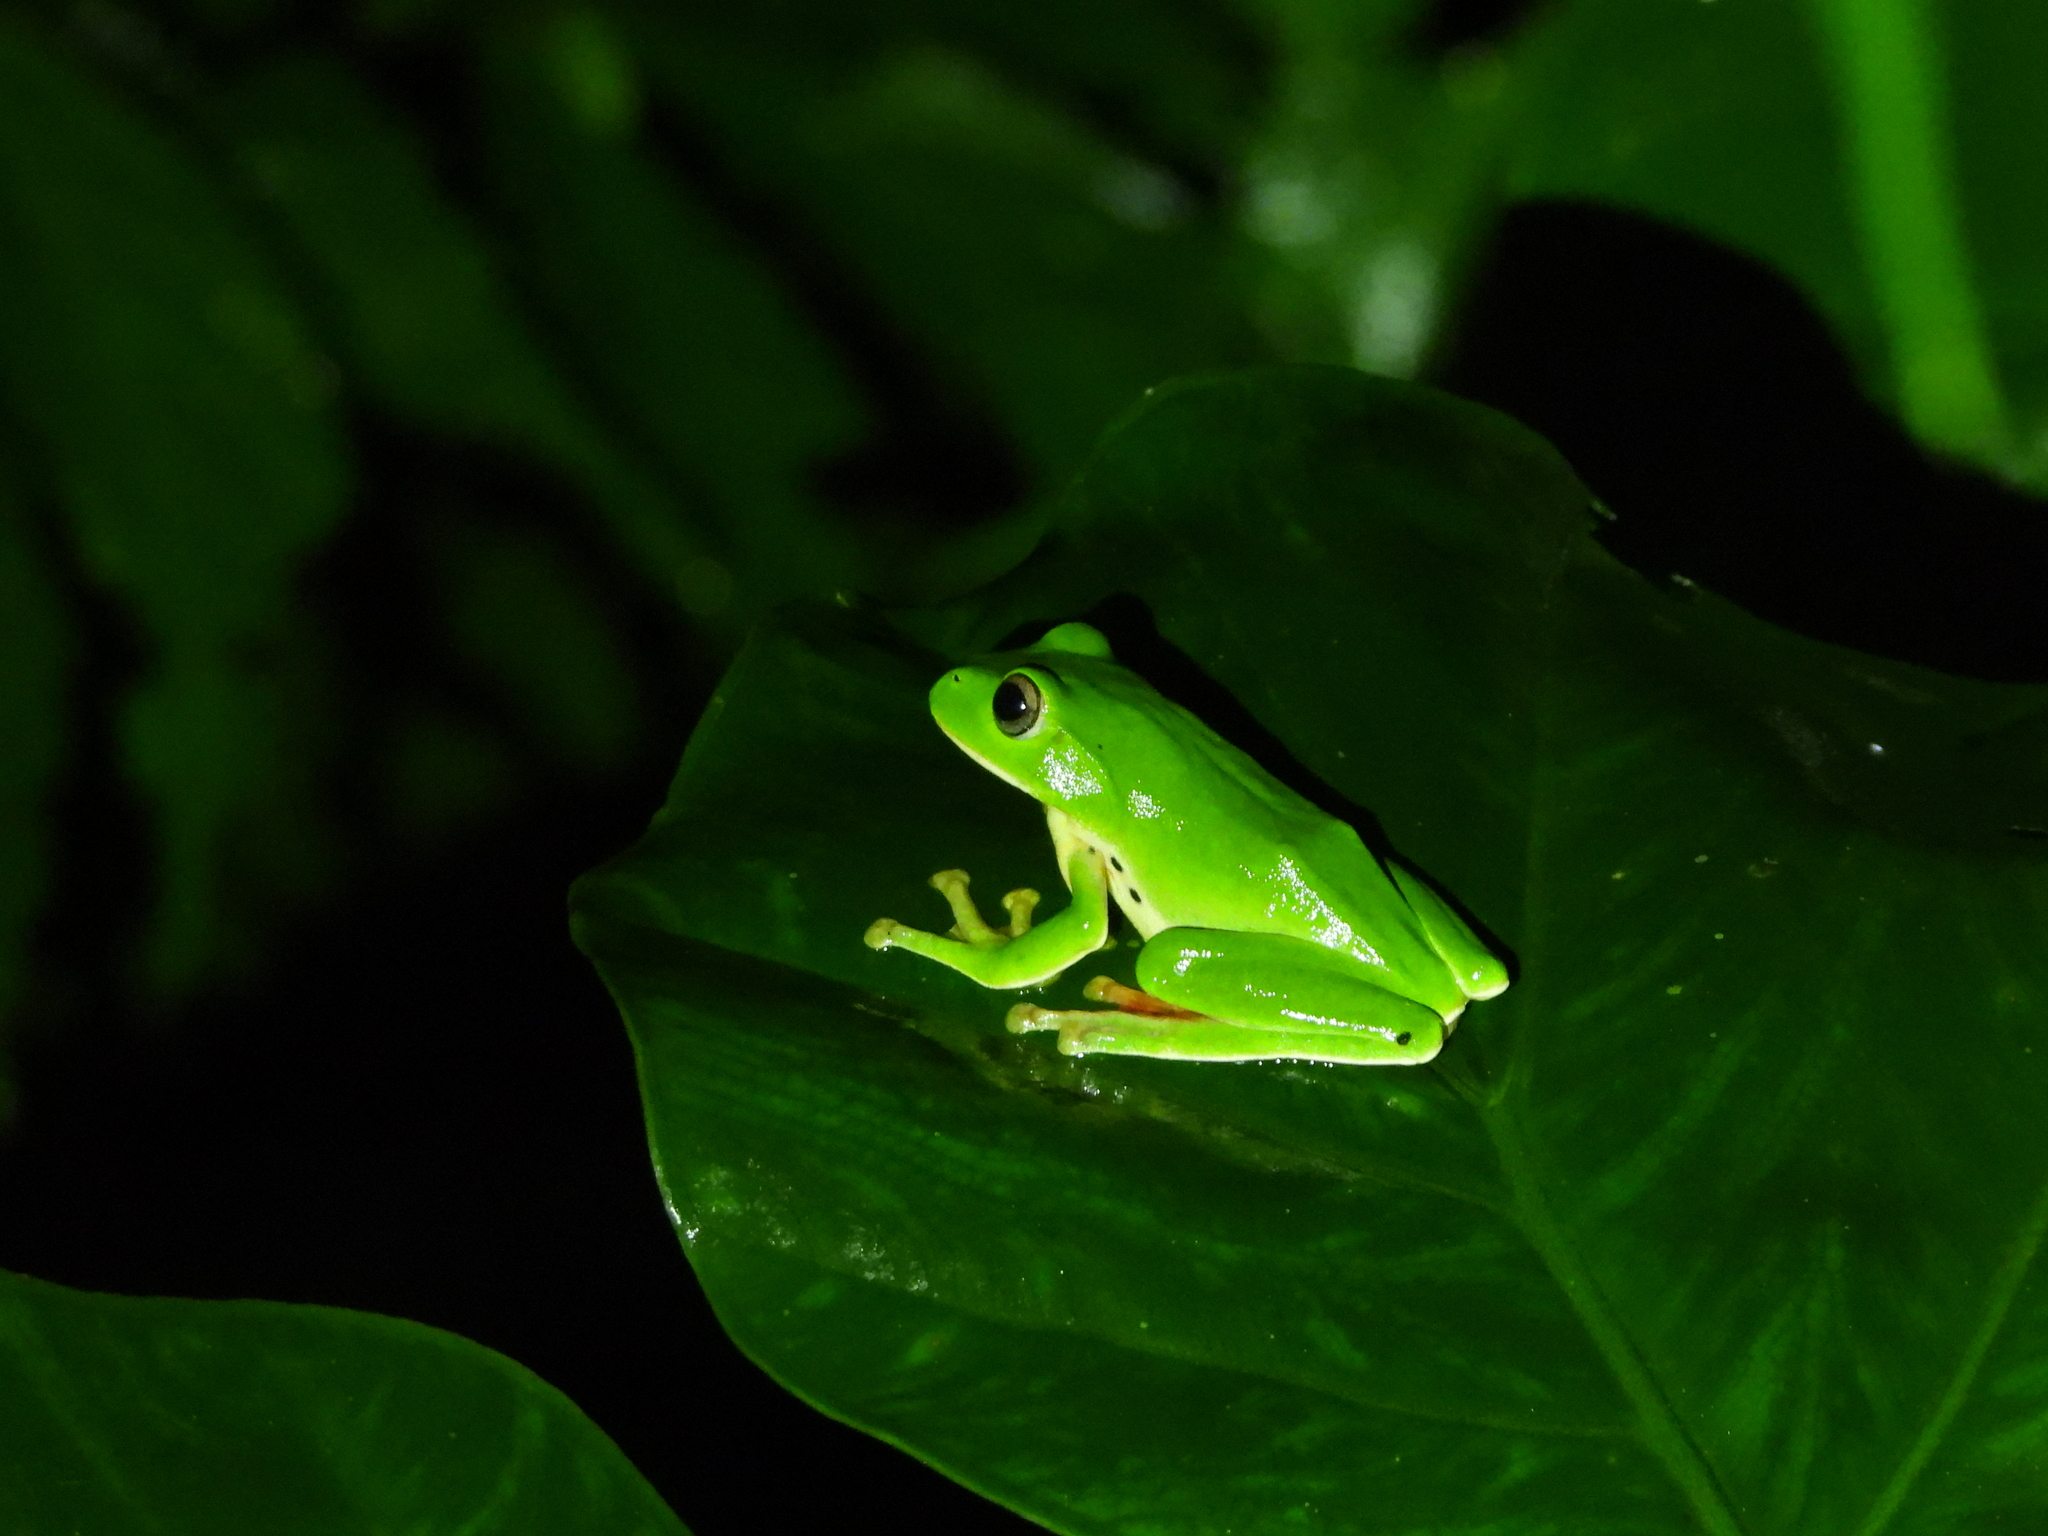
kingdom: Animalia
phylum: Chordata
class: Amphibia
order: Anura
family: Rhacophoridae
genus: Zhangixalus
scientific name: Zhangixalus moltrechti
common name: Moltrecht's treefrog
